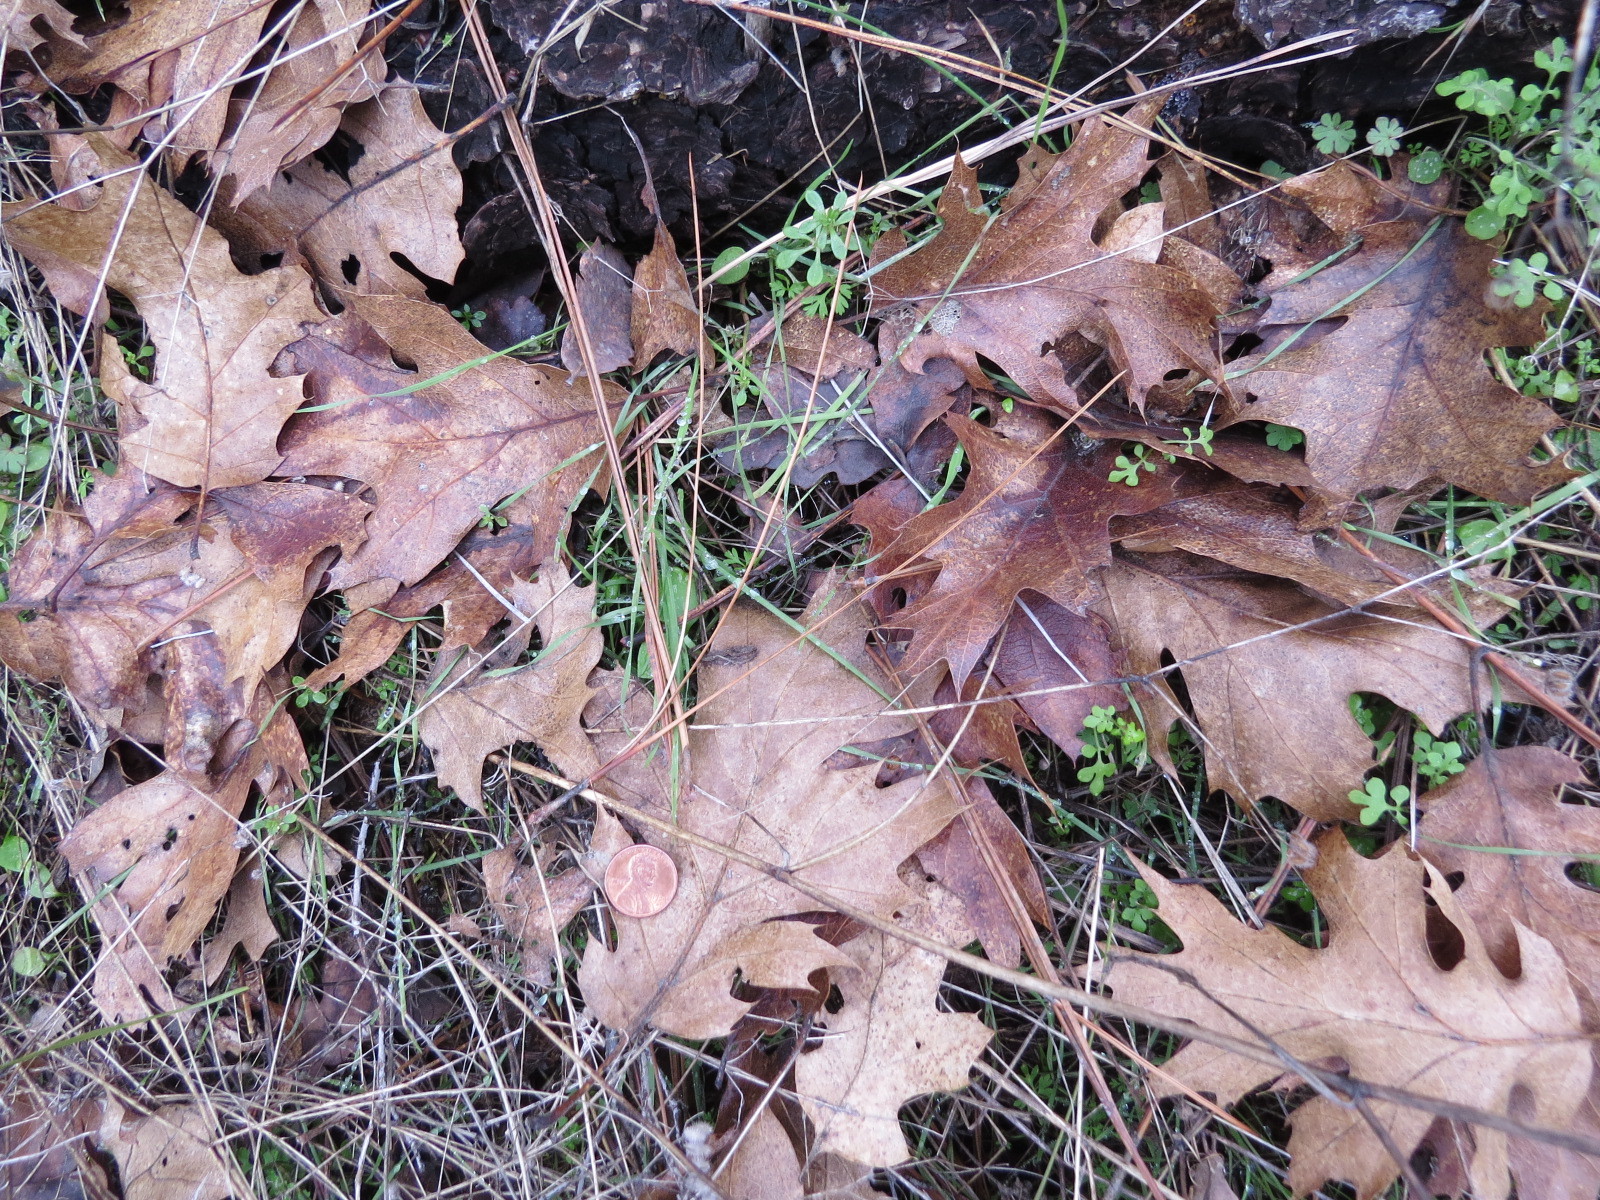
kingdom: Plantae
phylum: Tracheophyta
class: Magnoliopsida
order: Fagales
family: Fagaceae
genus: Quercus
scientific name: Quercus kelloggii
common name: California black oak
